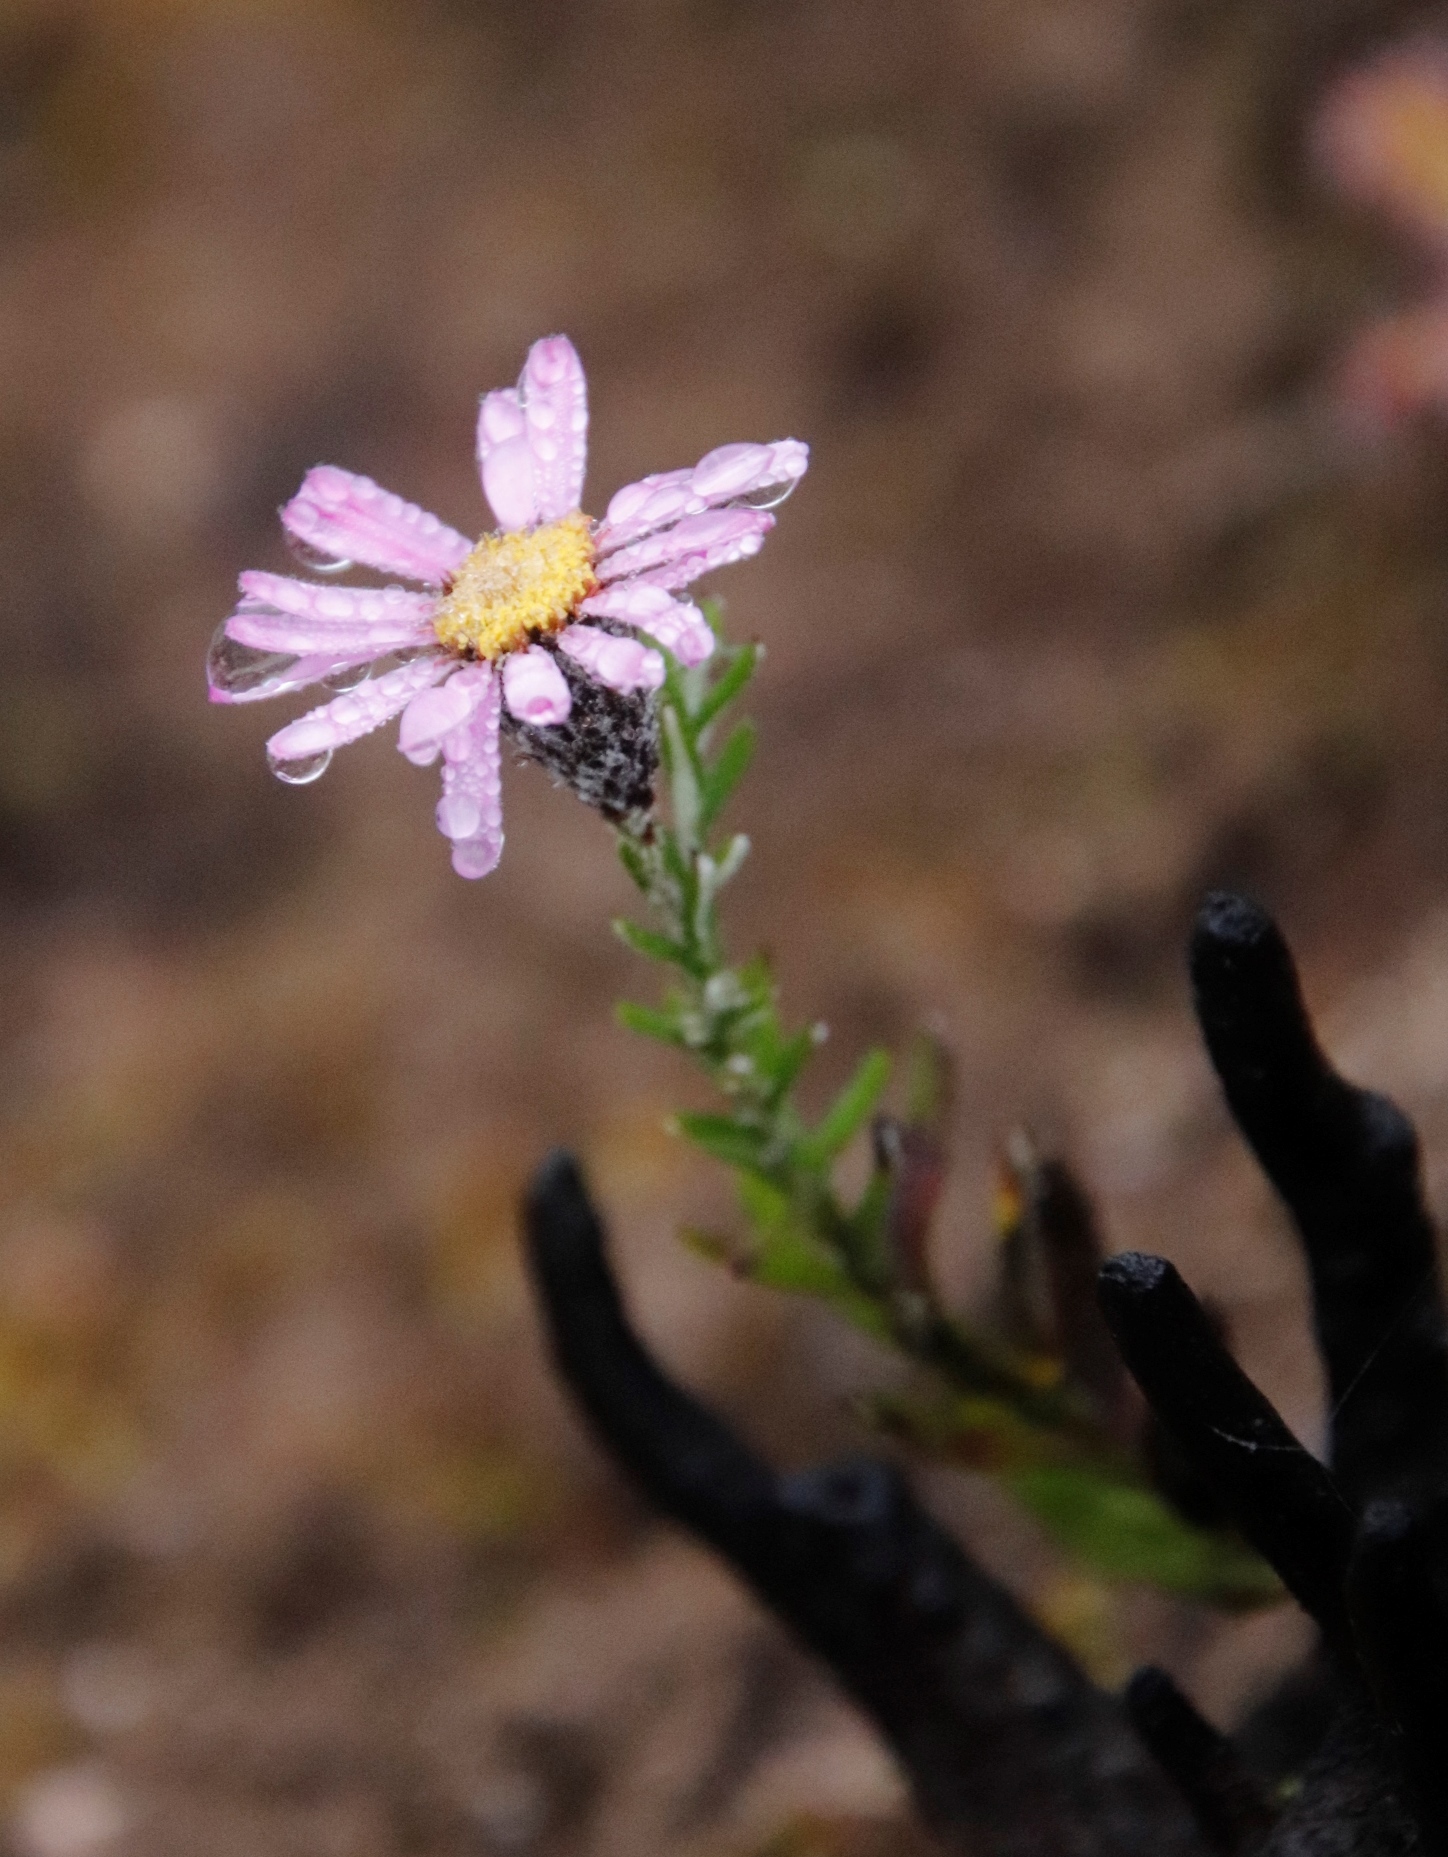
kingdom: Plantae
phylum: Tracheophyta
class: Magnoliopsida
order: Asterales
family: Asteraceae
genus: Athrixia
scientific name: Athrixia heterophylla
